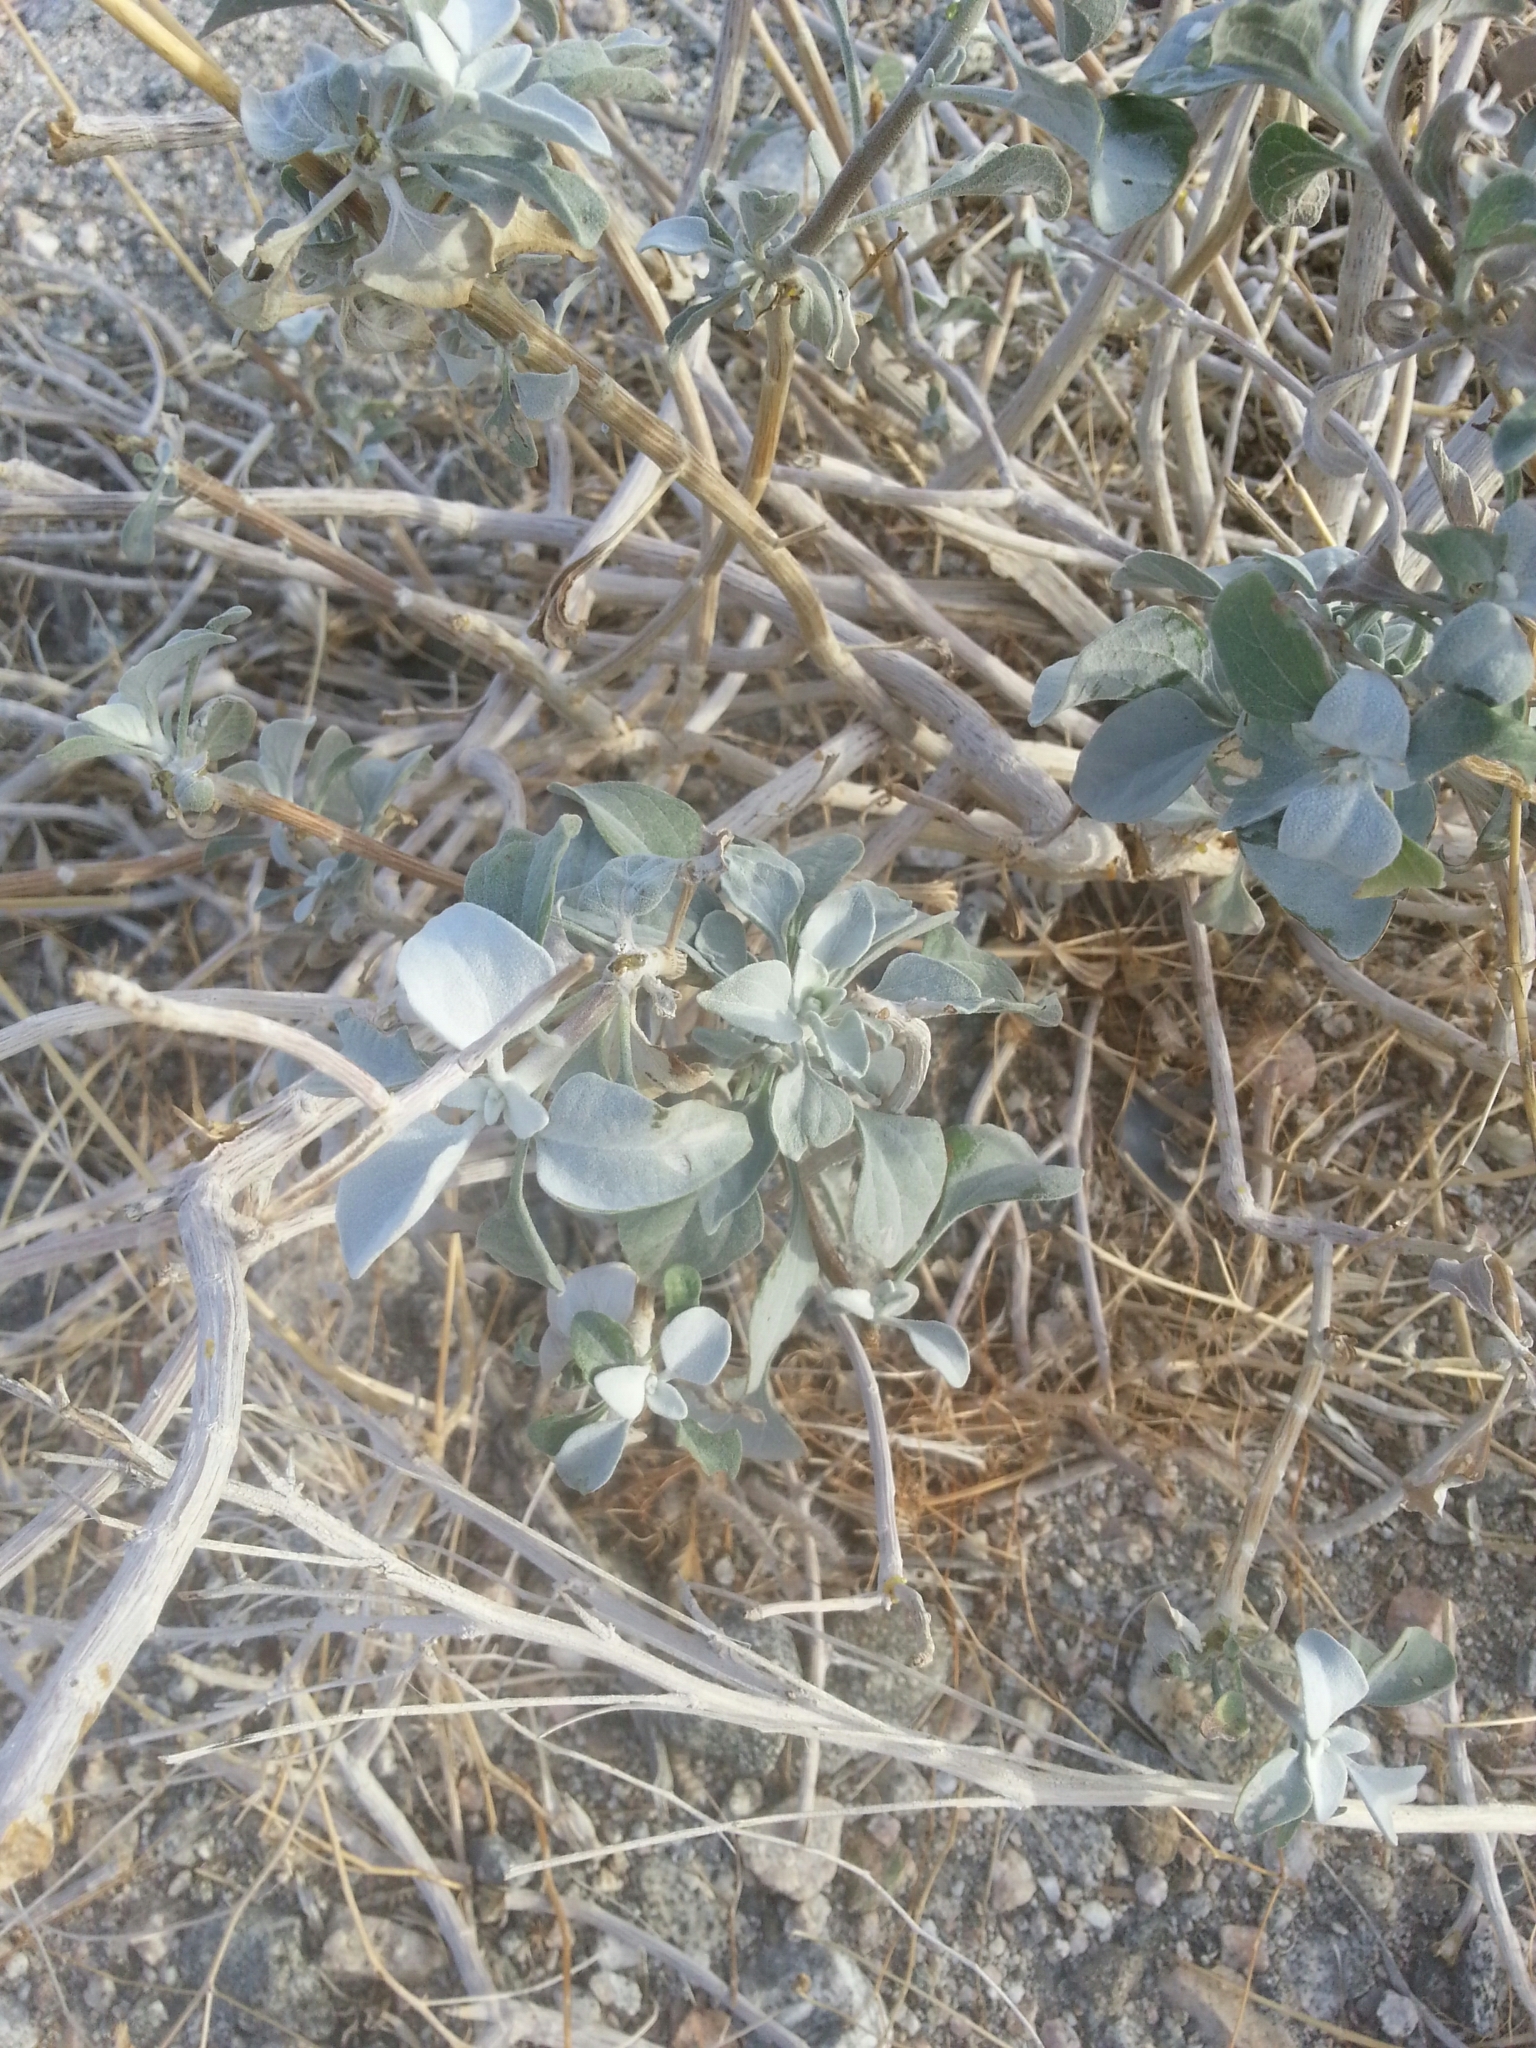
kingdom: Plantae
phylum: Tracheophyta
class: Magnoliopsida
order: Asterales
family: Asteraceae
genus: Encelia
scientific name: Encelia farinosa
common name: Brittlebush
